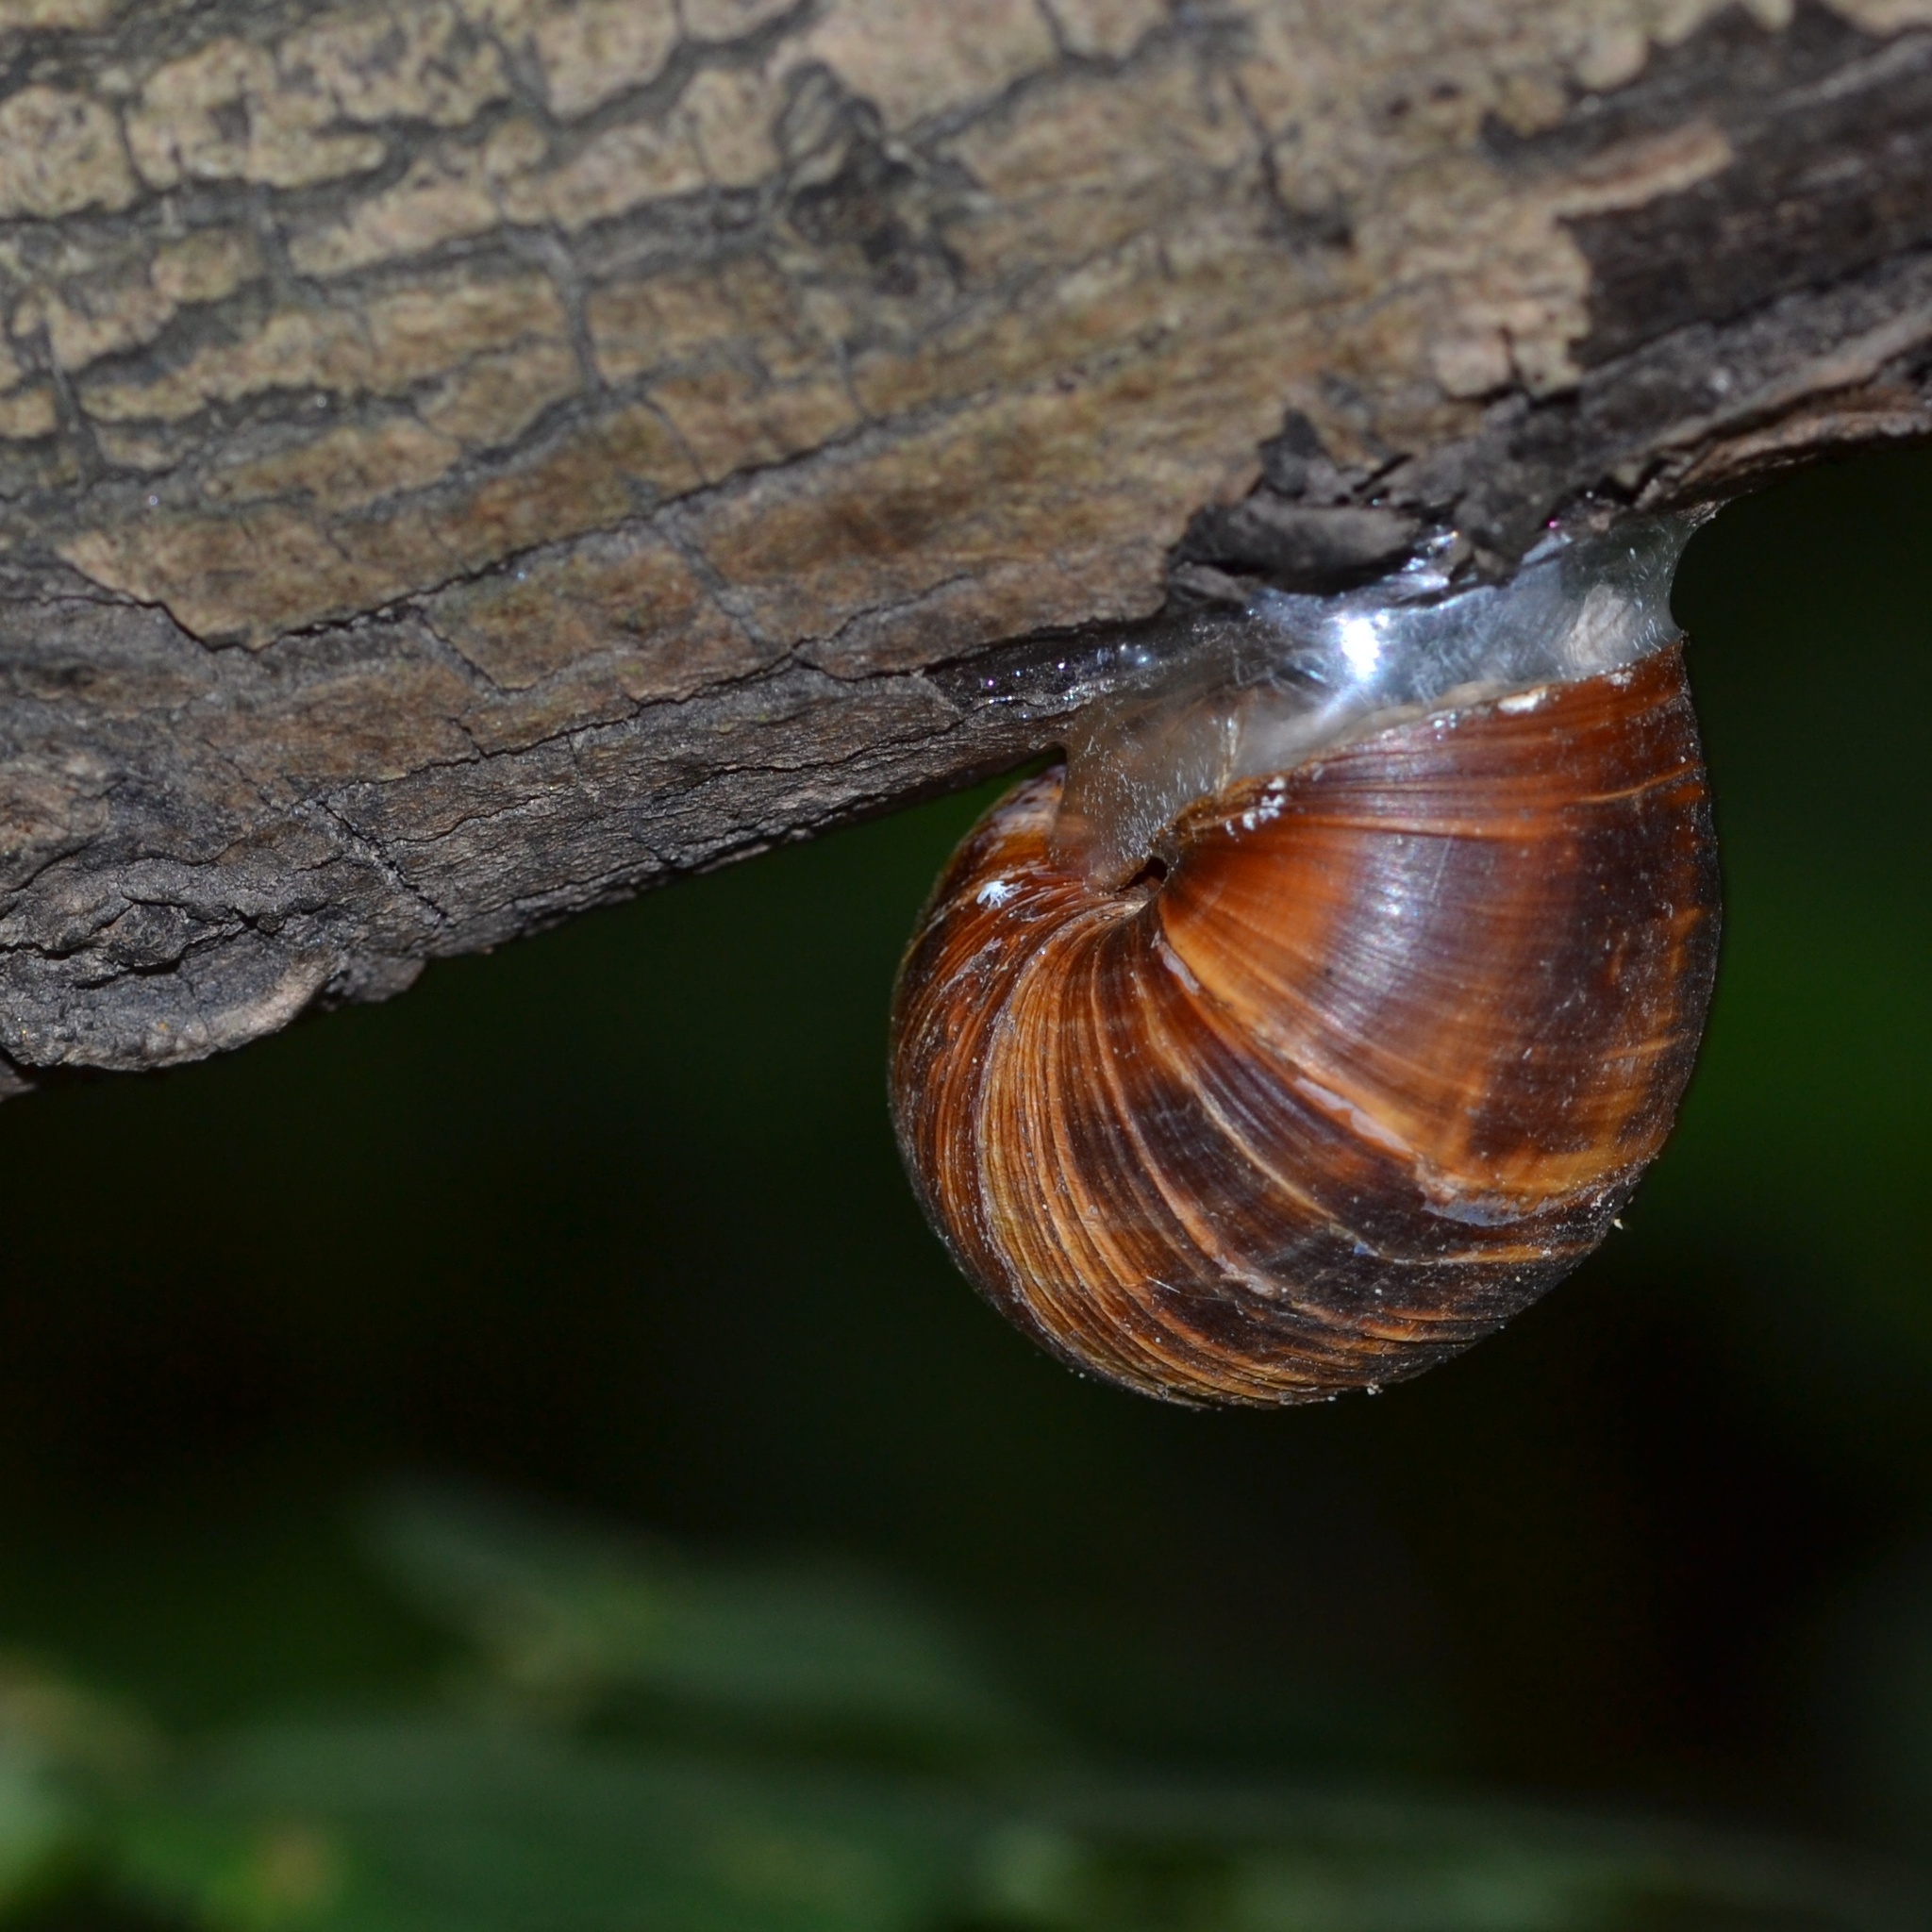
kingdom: Animalia
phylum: Mollusca
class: Gastropoda
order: Stylommatophora
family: Helicidae
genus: Helix
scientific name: Helix pomatia
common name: Roman snail
